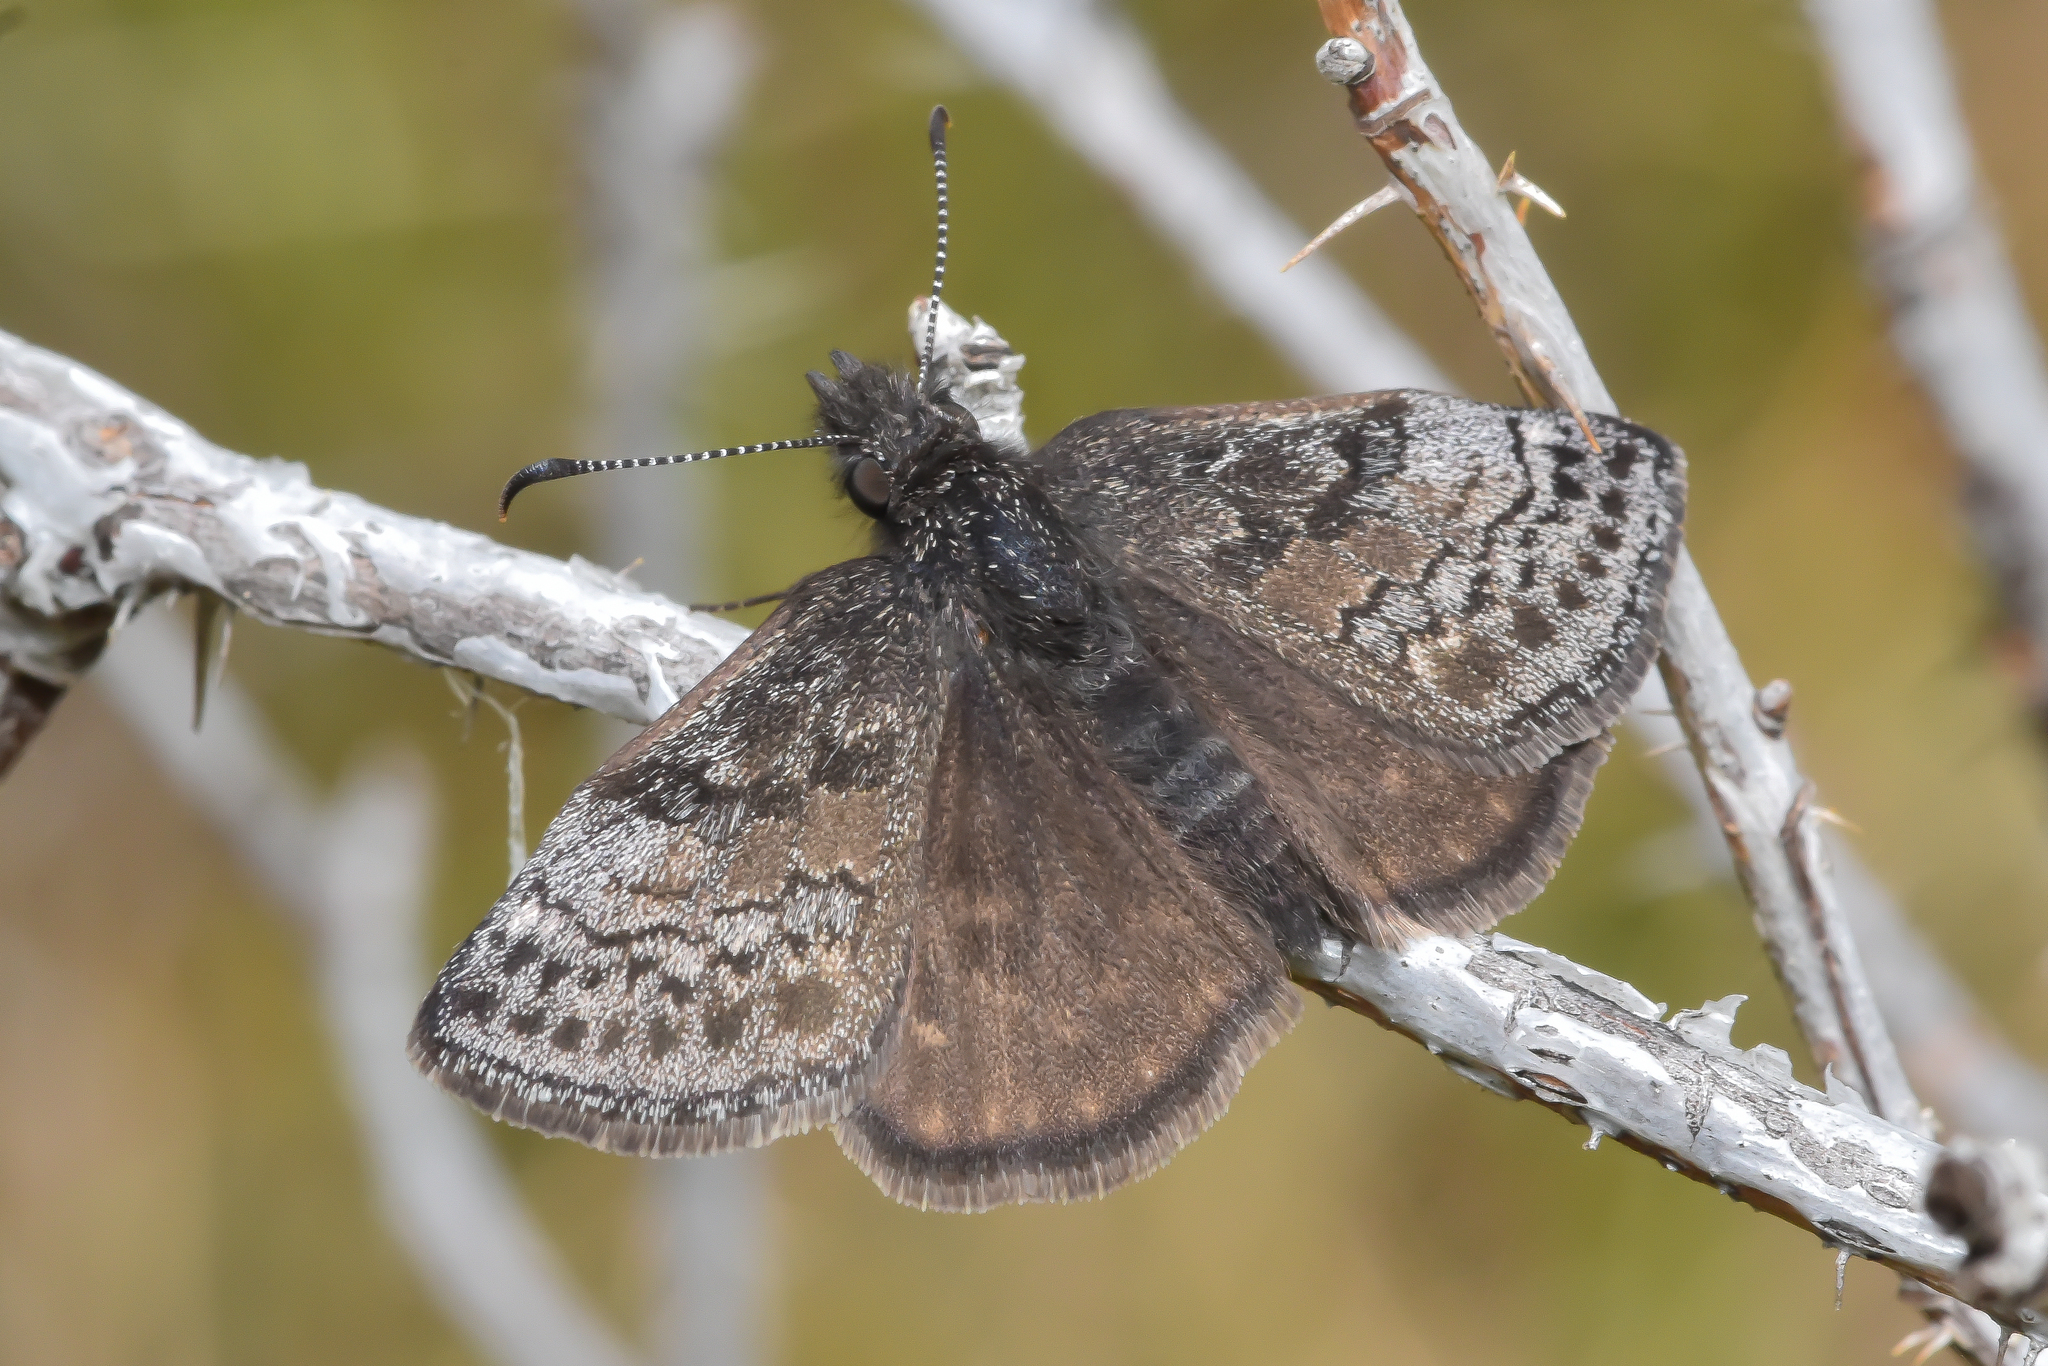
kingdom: Animalia
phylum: Arthropoda
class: Insecta
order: Lepidoptera
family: Hesperiidae
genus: Erynnis
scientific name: Erynnis icelus
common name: Dreamy duskywing
